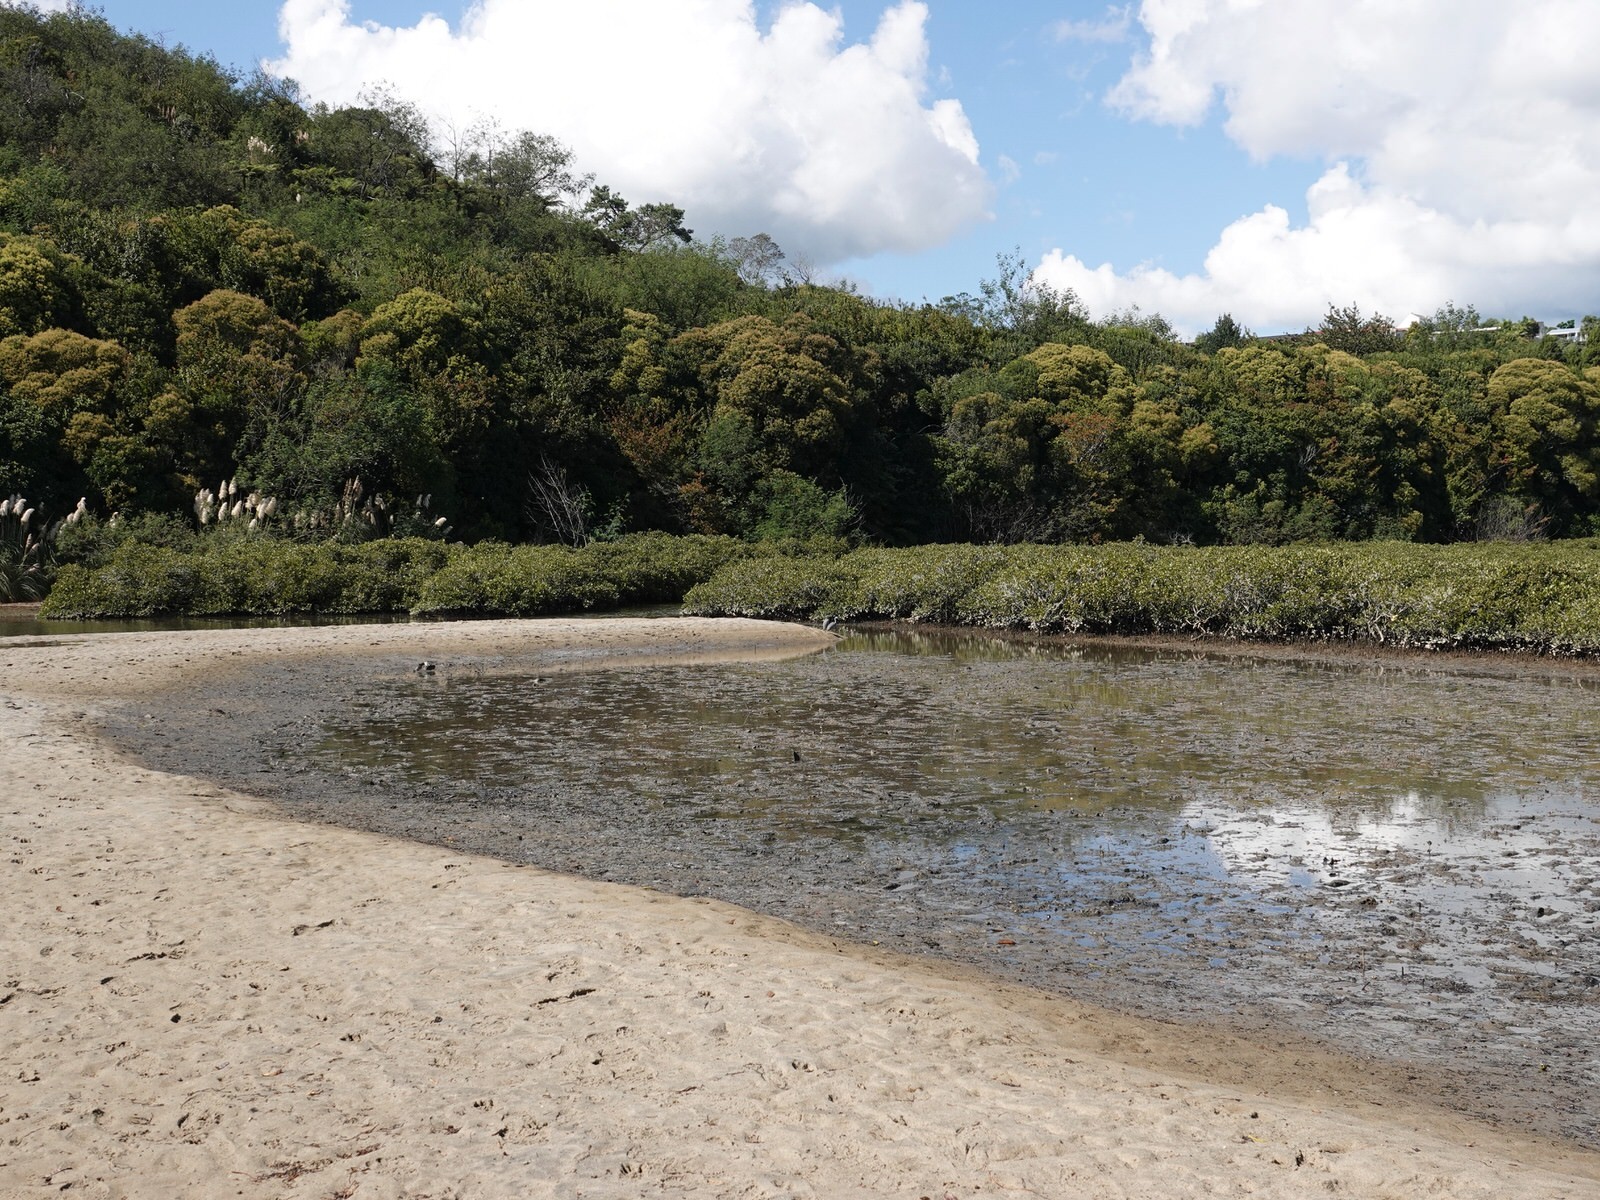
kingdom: Animalia
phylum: Chordata
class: Aves
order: Pelecaniformes
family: Ardeidae
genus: Egretta
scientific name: Egretta novaehollandiae
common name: White-faced heron
